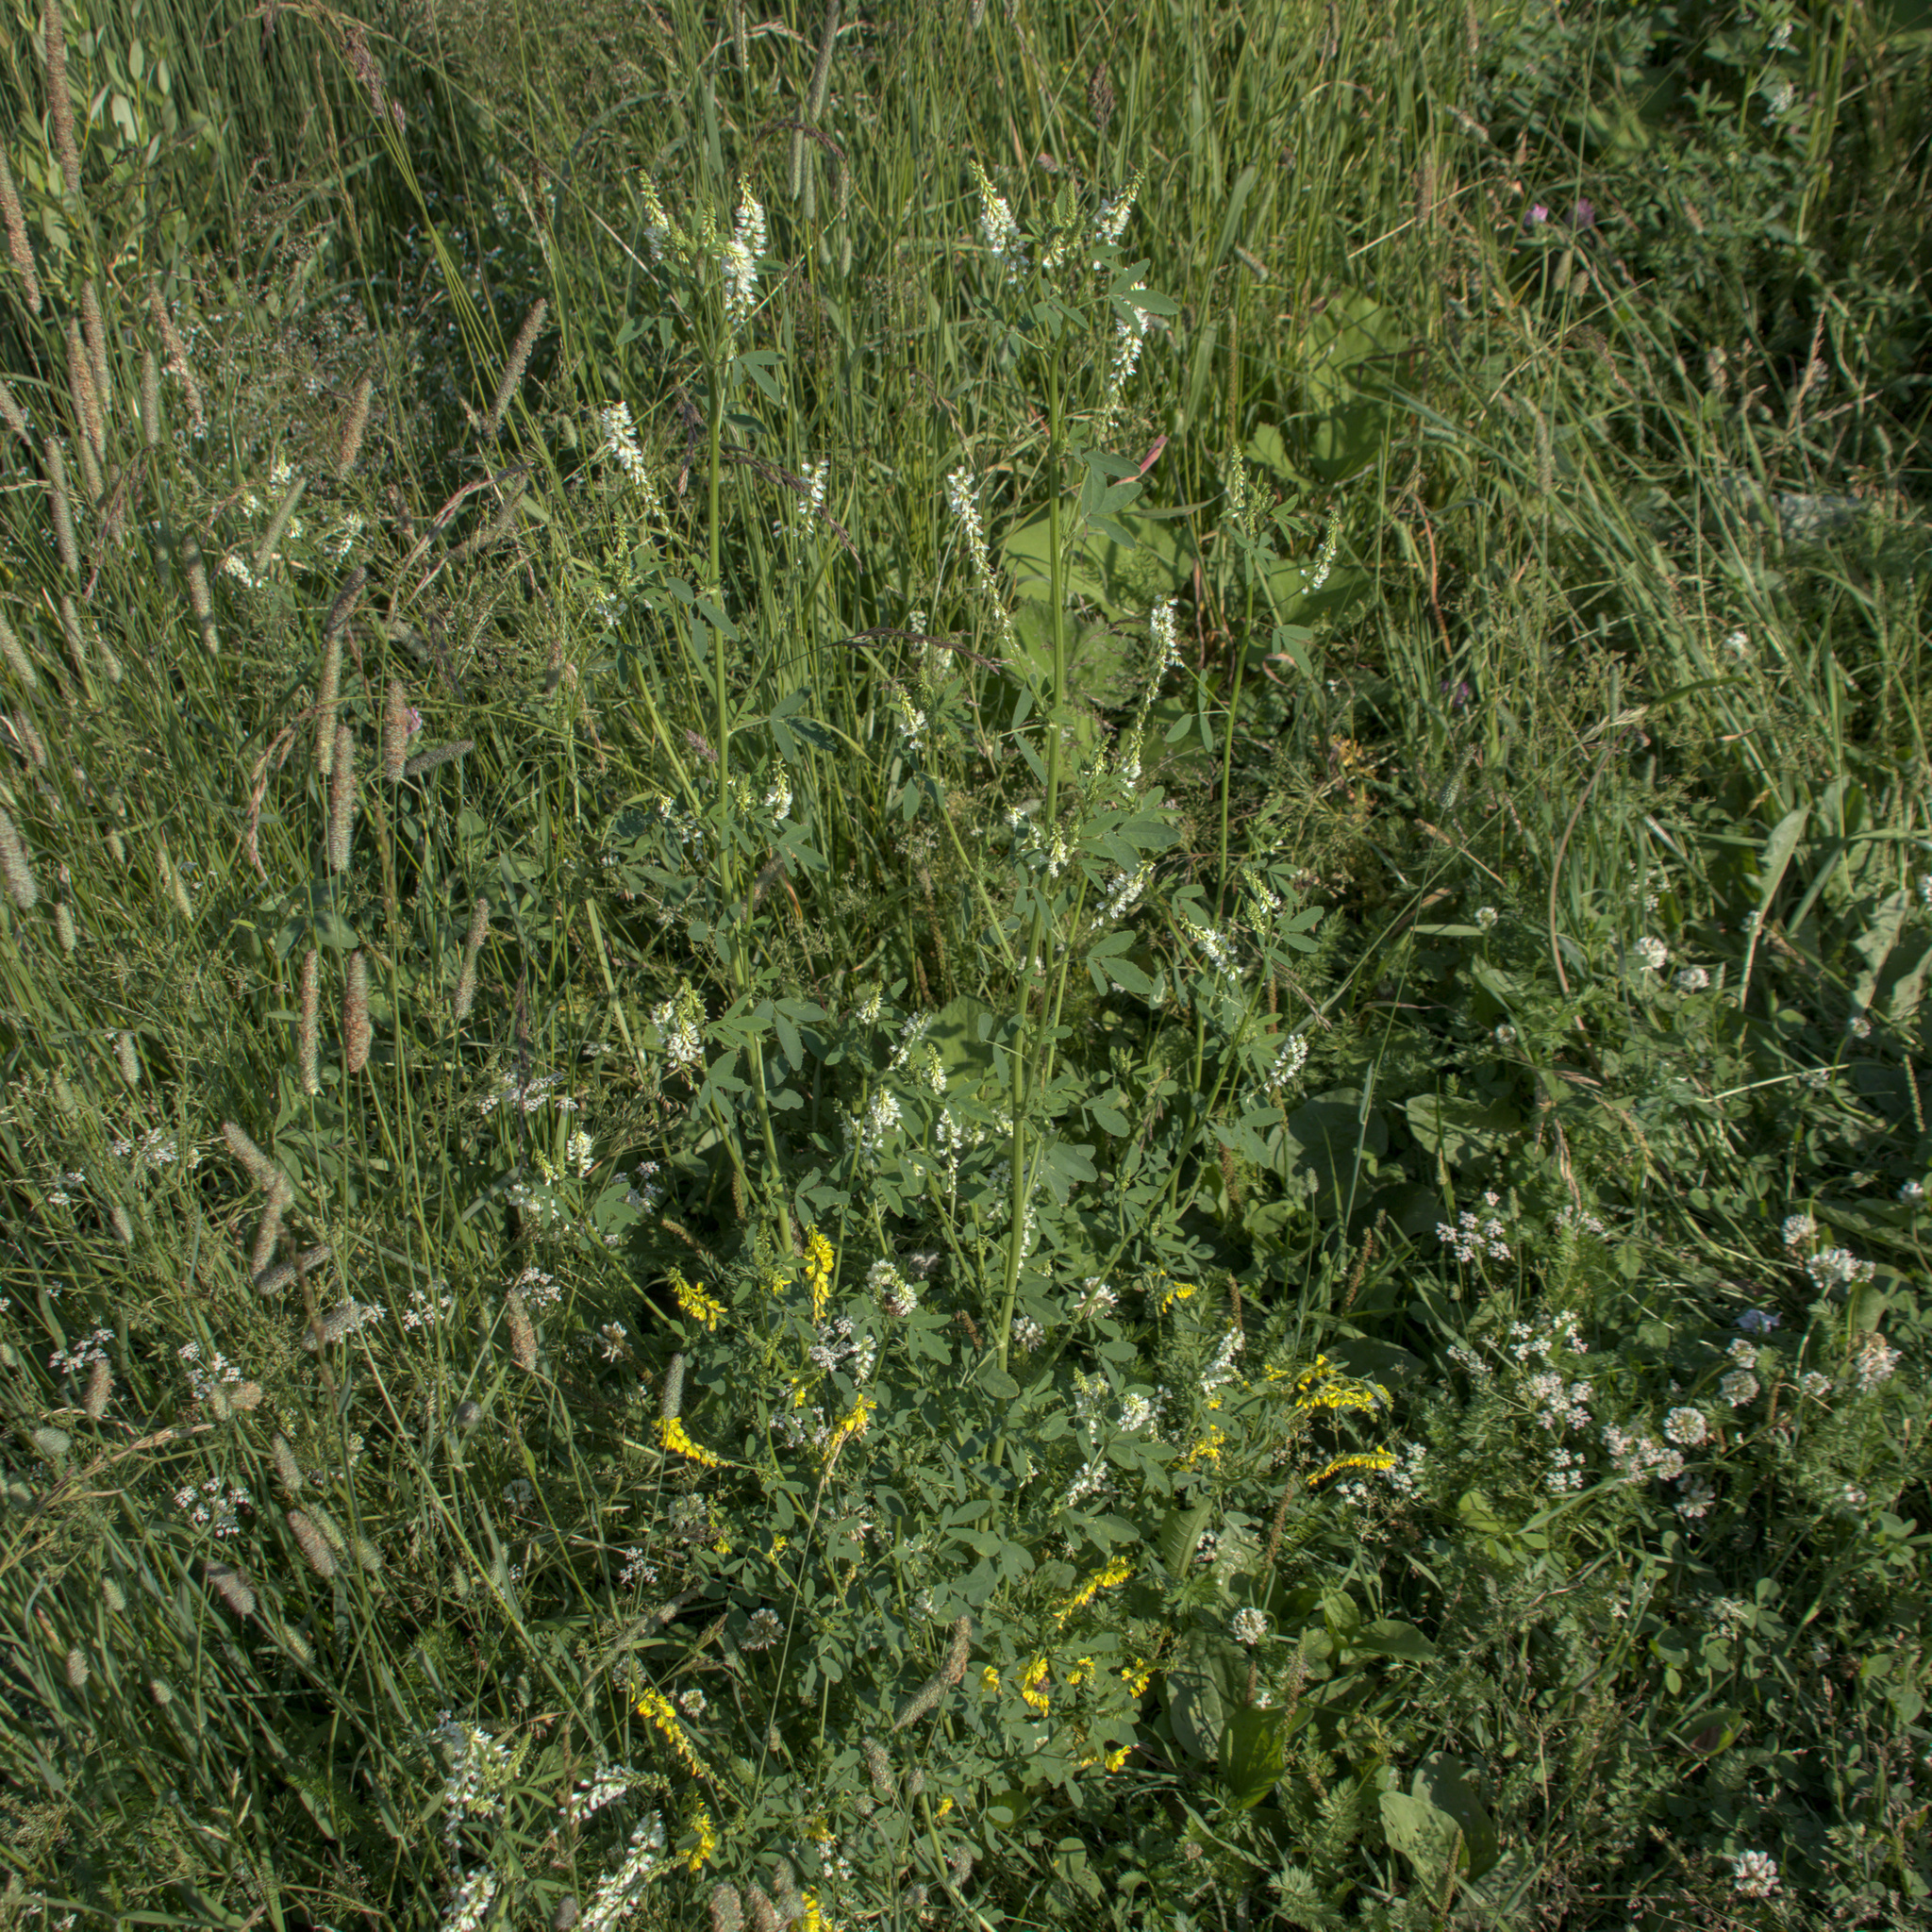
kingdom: Plantae
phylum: Tracheophyta
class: Magnoliopsida
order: Fabales
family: Fabaceae
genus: Melilotus
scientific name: Melilotus albus
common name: White melilot
